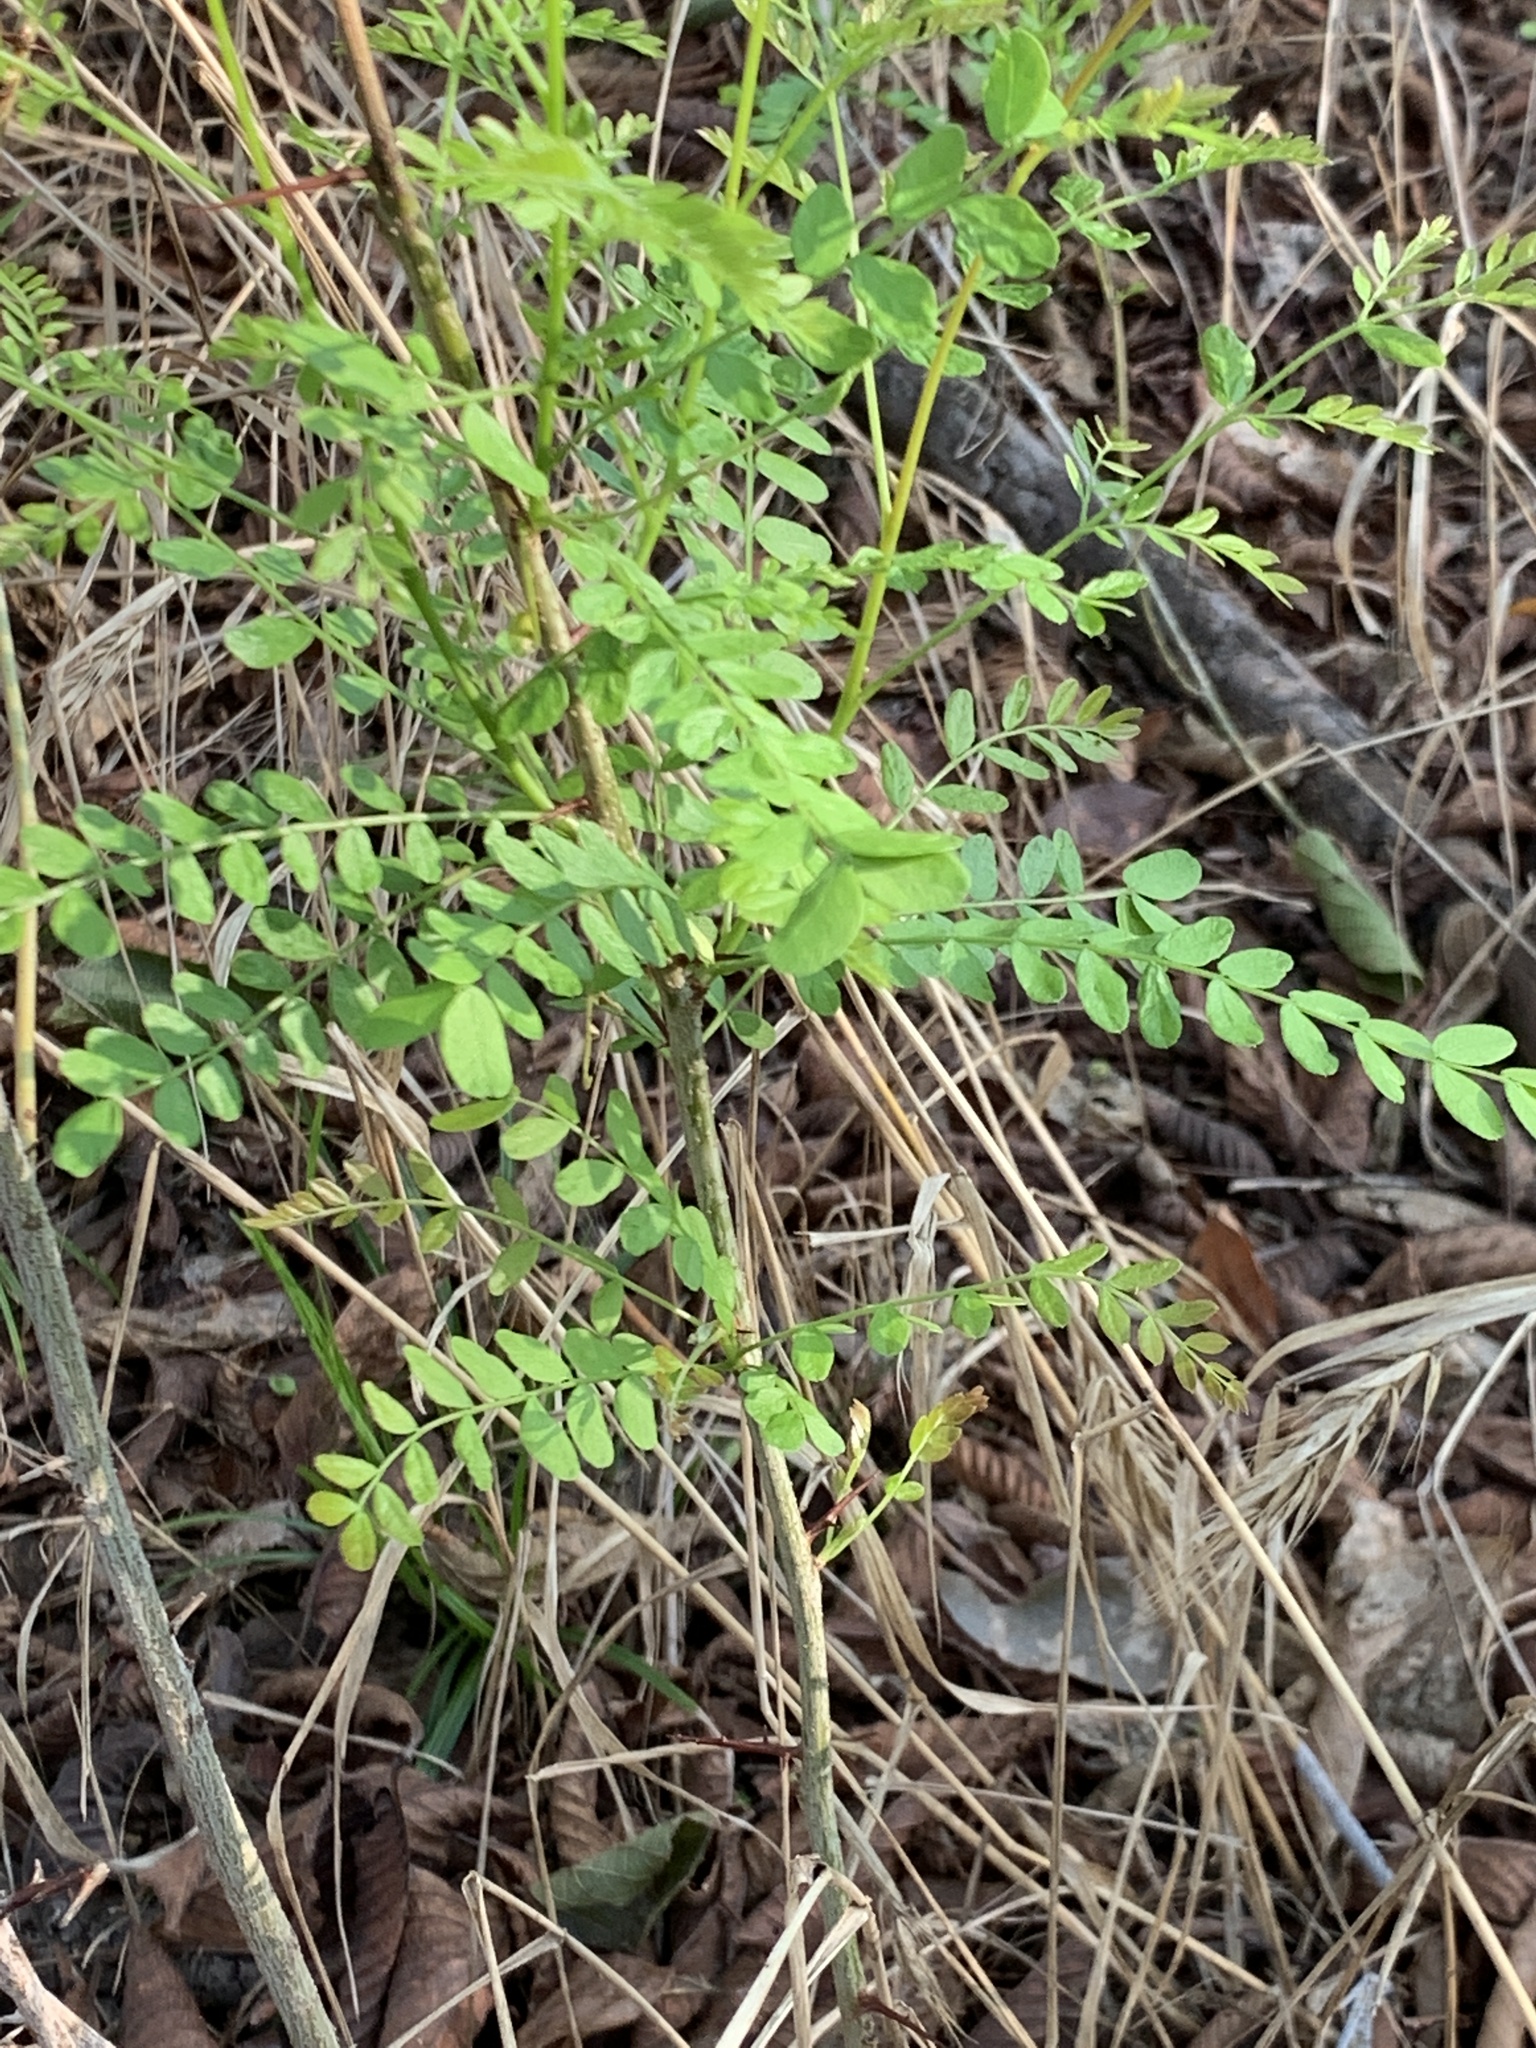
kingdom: Plantae
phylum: Tracheophyta
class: Magnoliopsida
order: Fabales
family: Fabaceae
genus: Gleditsia
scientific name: Gleditsia triacanthos
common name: Common honeylocust
